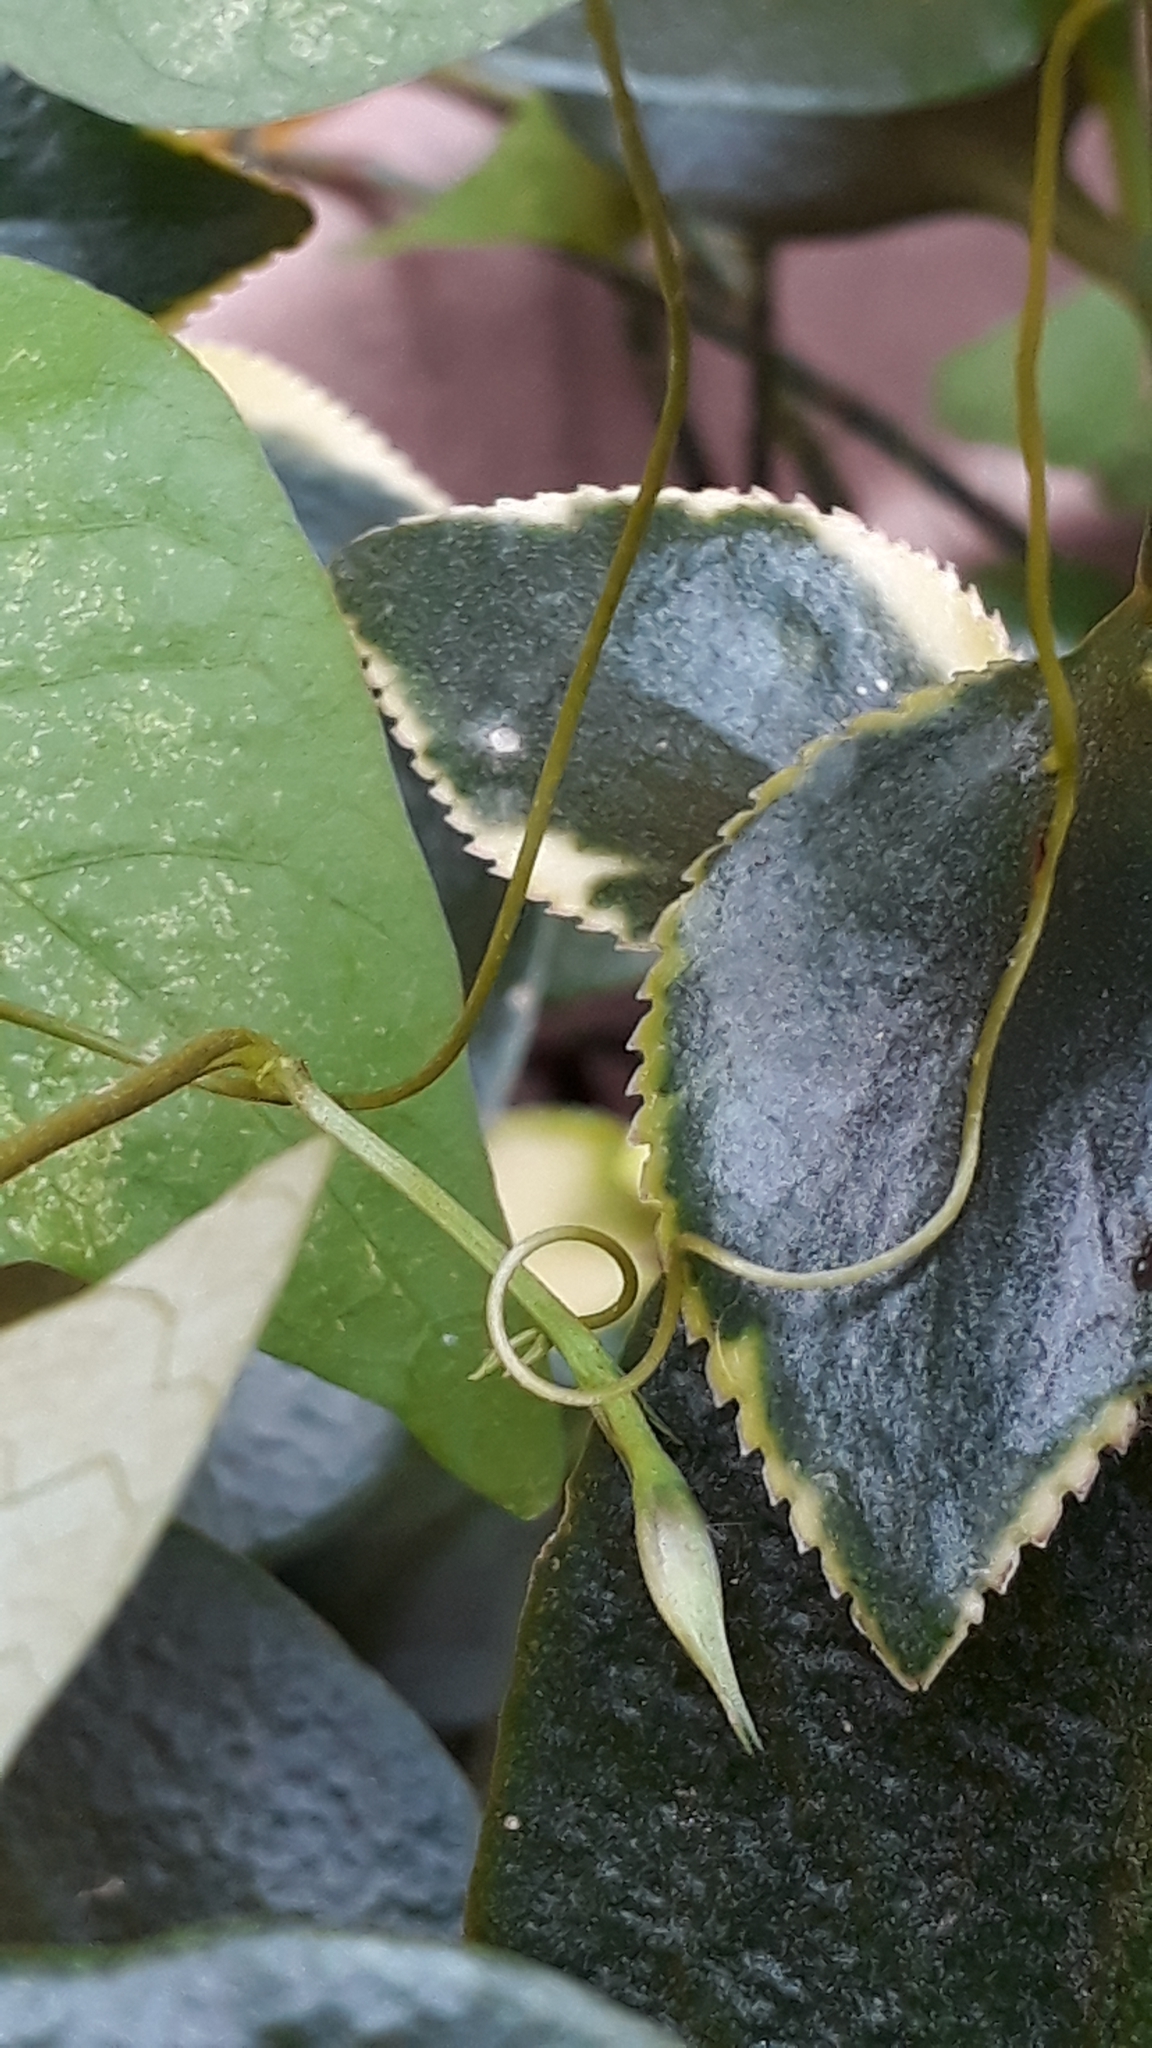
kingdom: Plantae
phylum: Tracheophyta
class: Magnoliopsida
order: Solanales
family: Convolvulaceae
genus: Ipomoea
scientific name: Ipomoea grandifolia
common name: Aiea morning glory
